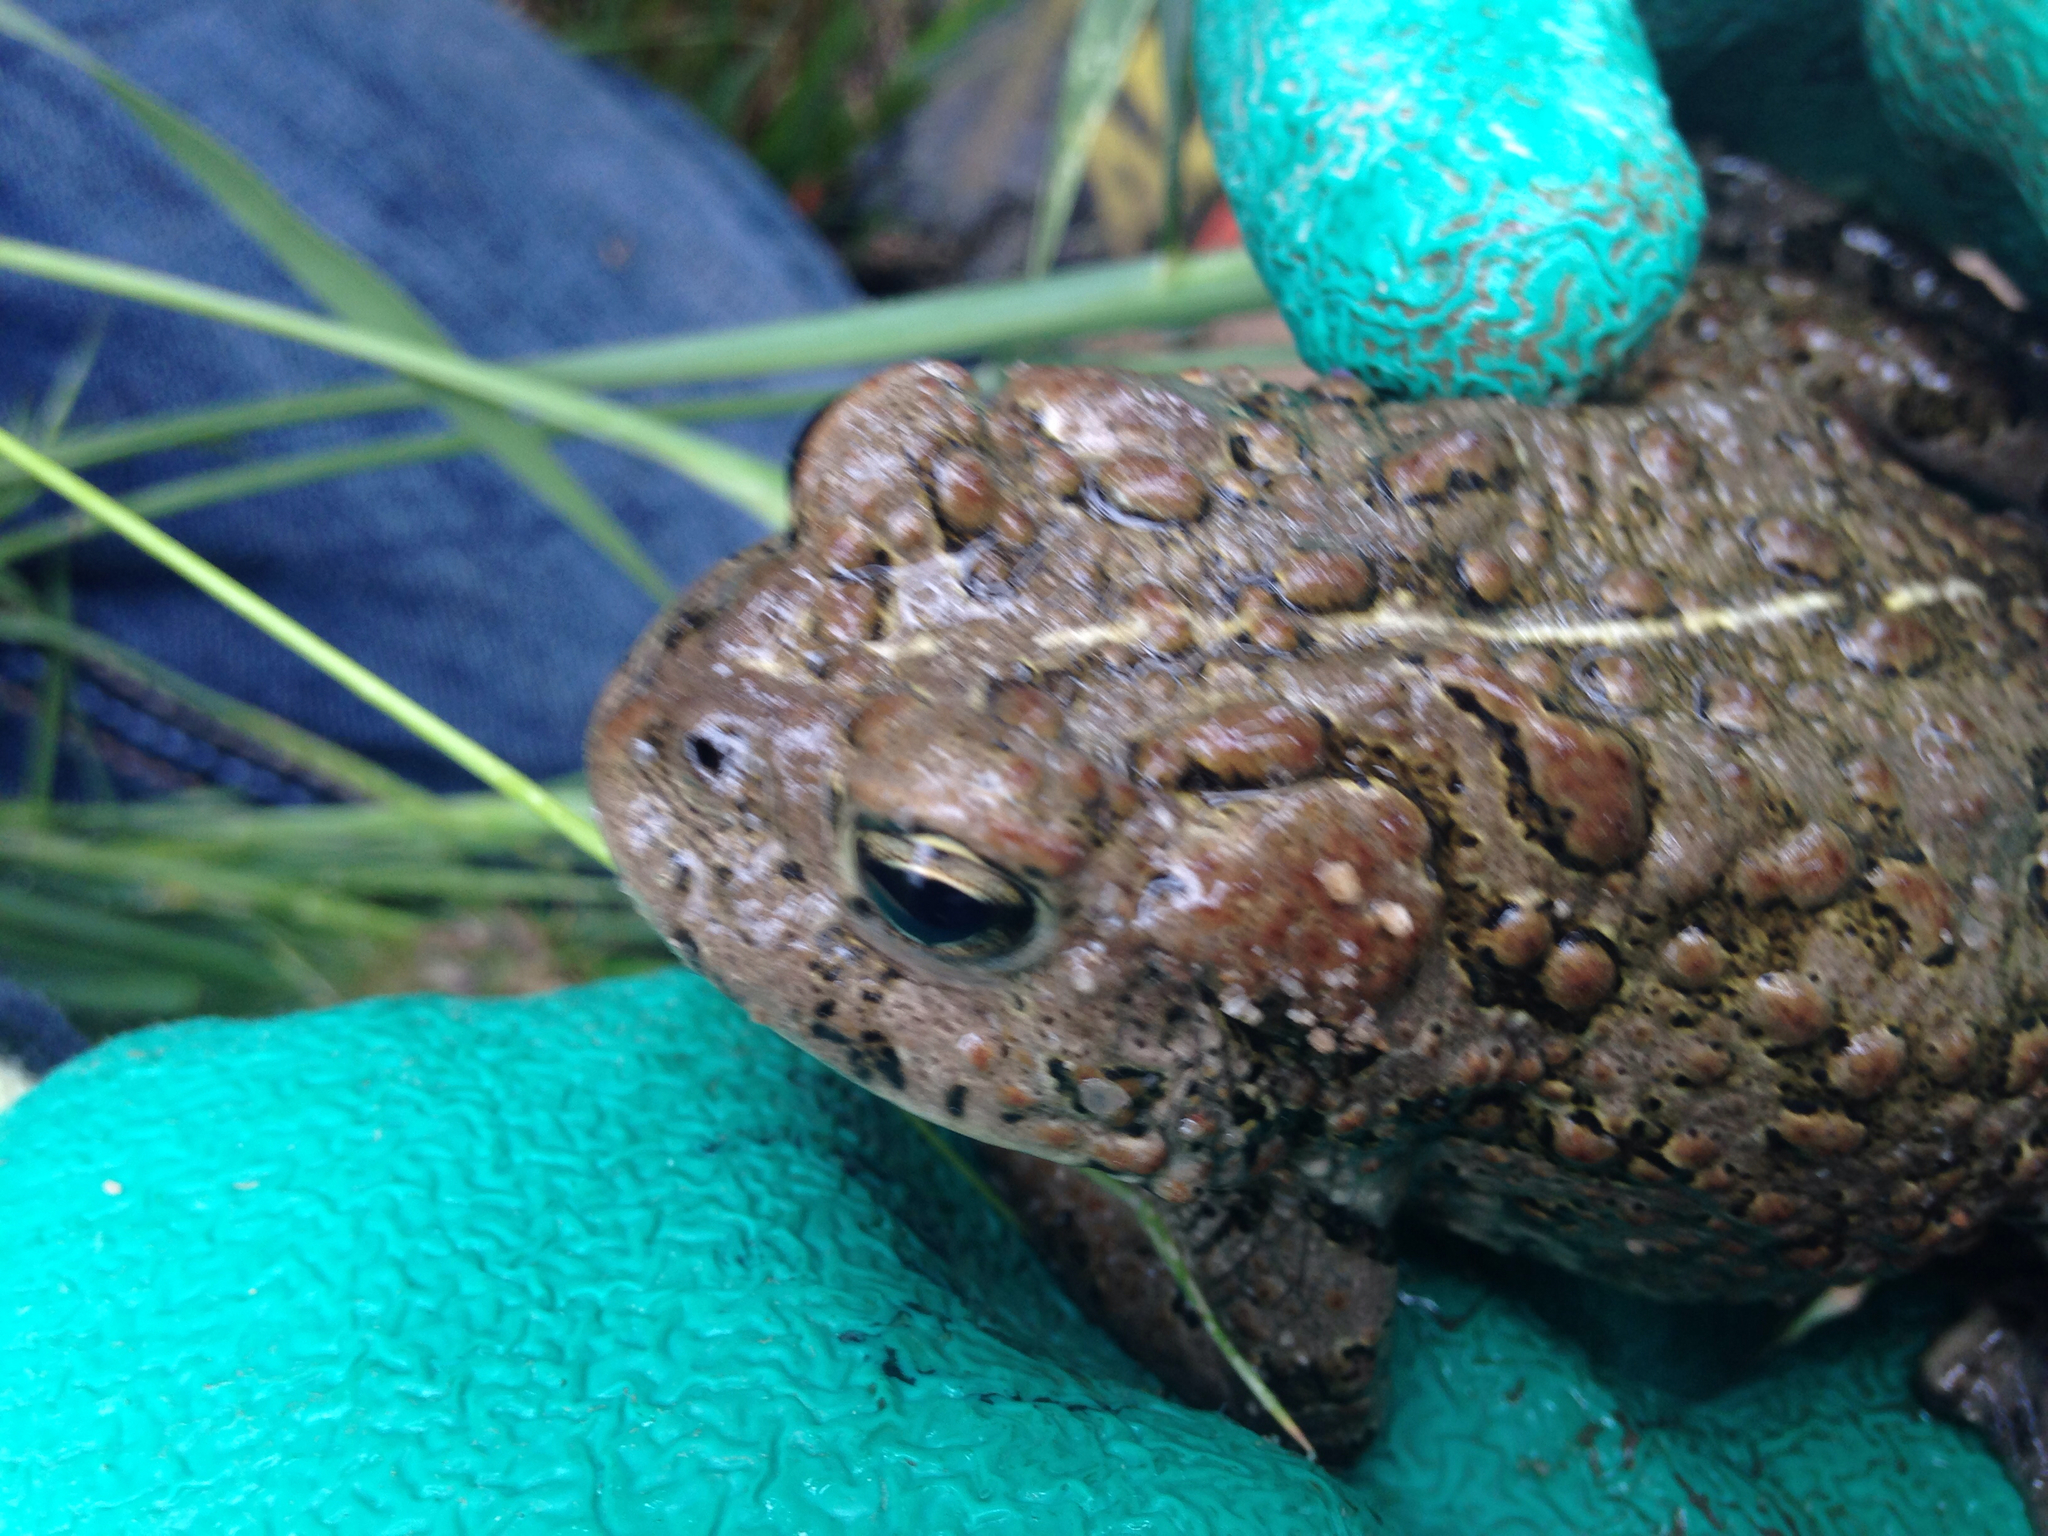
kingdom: Animalia
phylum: Chordata
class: Amphibia
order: Anura
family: Bufonidae
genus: Anaxyrus
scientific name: Anaxyrus boreas
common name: Western toad
